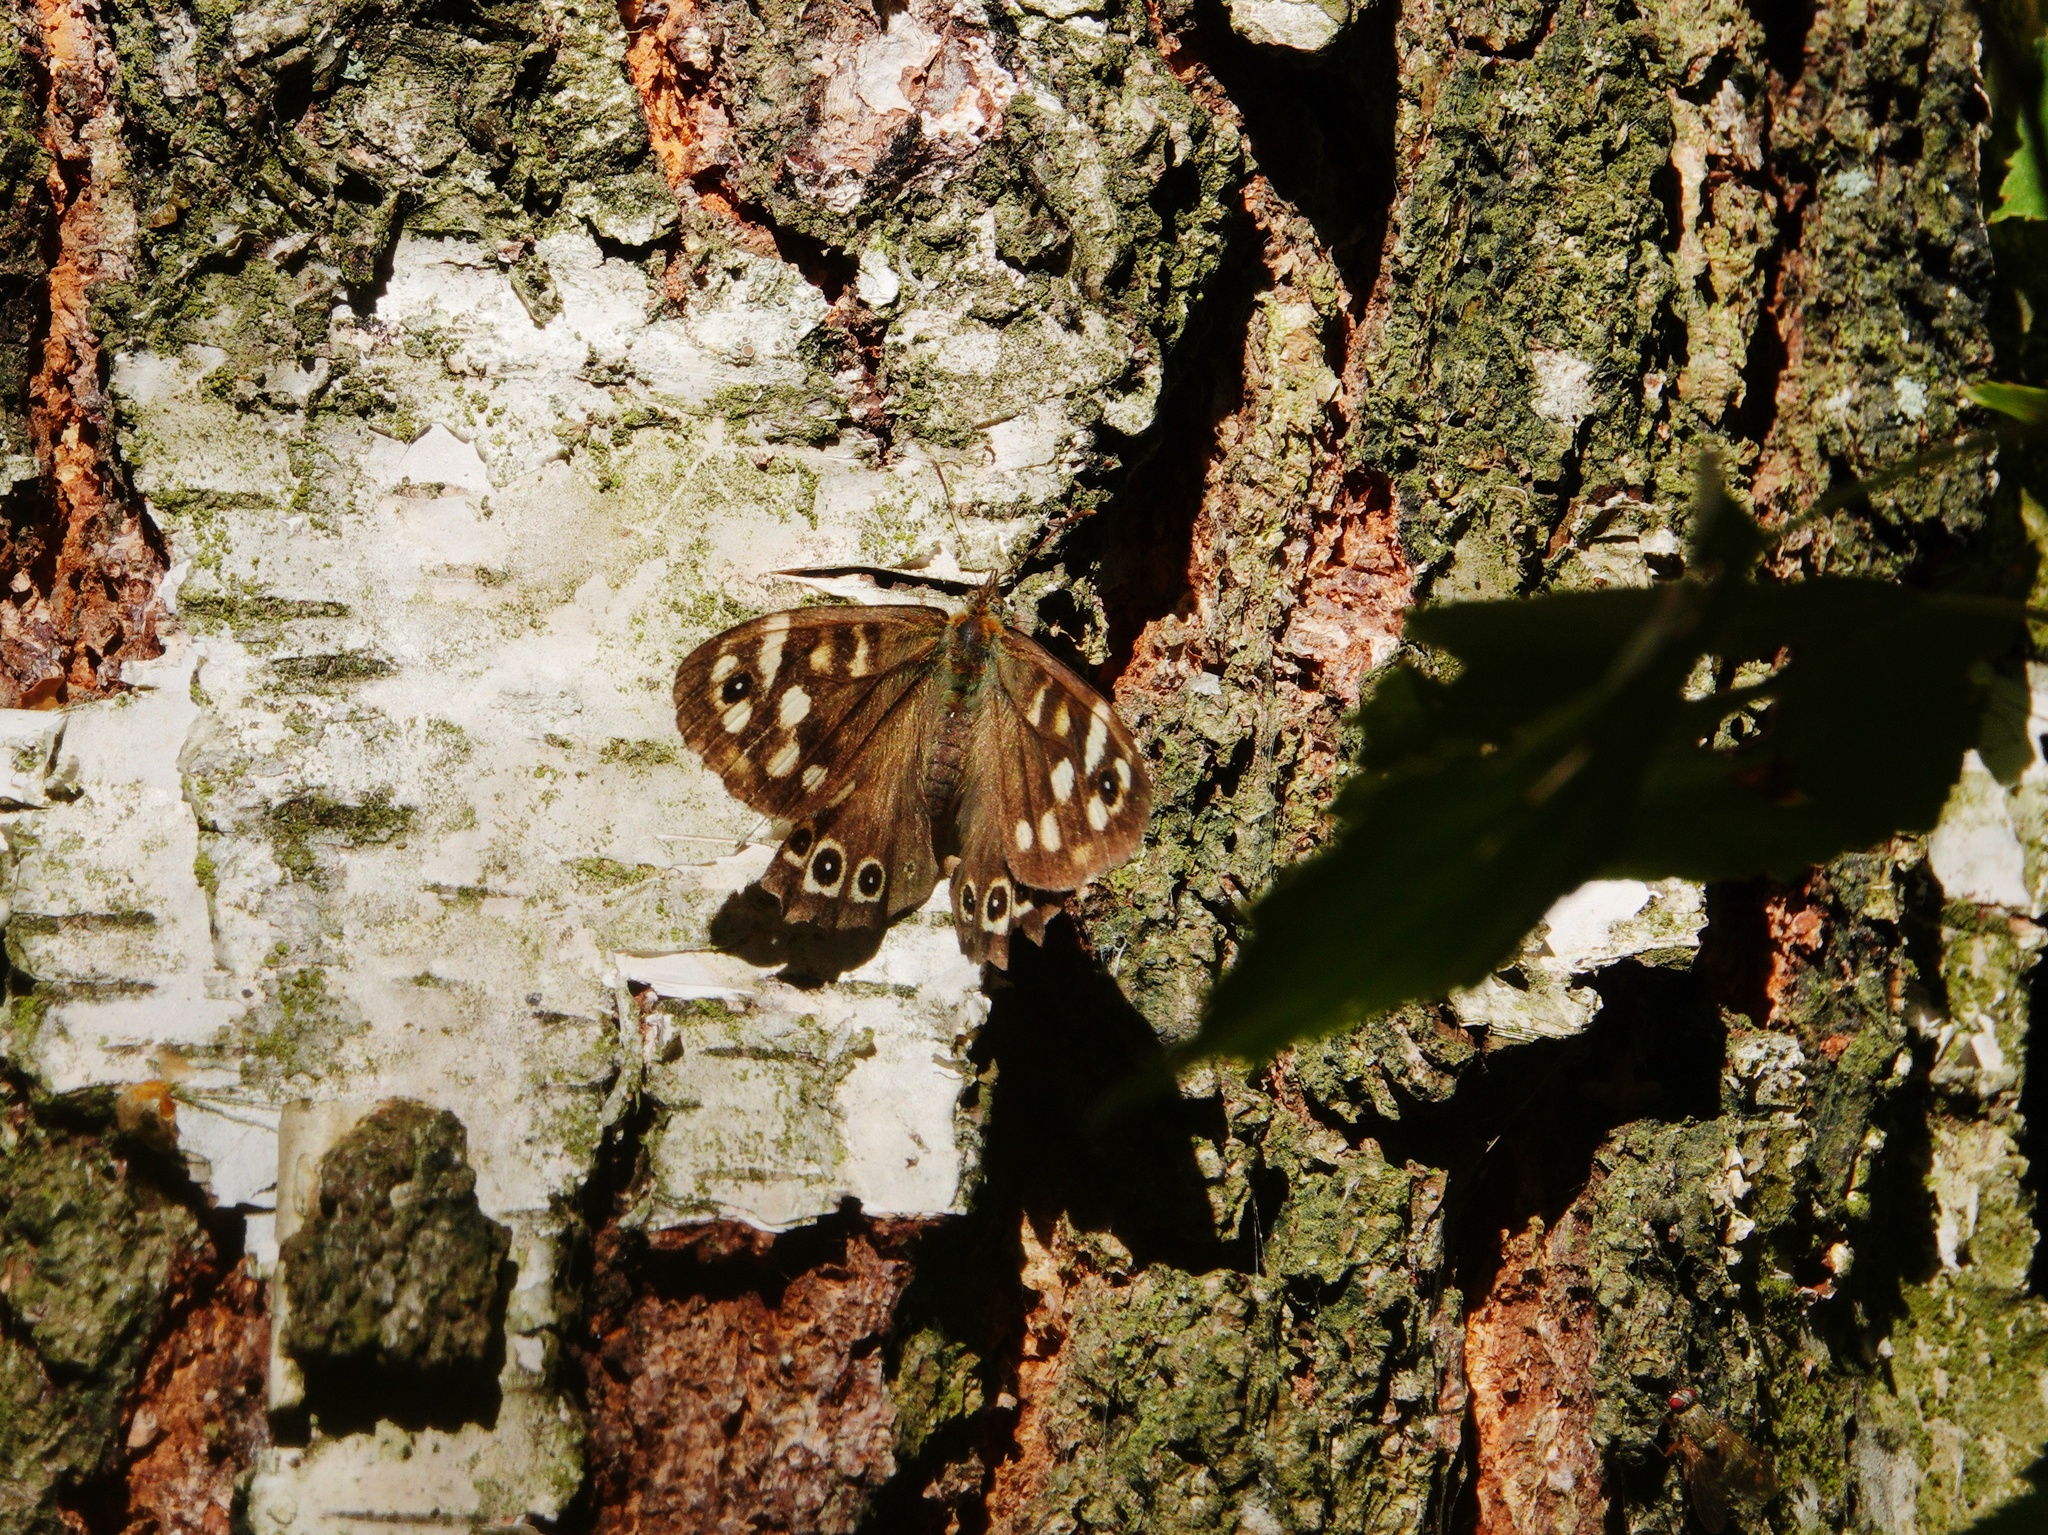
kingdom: Animalia
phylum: Arthropoda
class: Insecta
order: Lepidoptera
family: Nymphalidae
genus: Pararge
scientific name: Pararge aegeria
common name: Speckled wood
